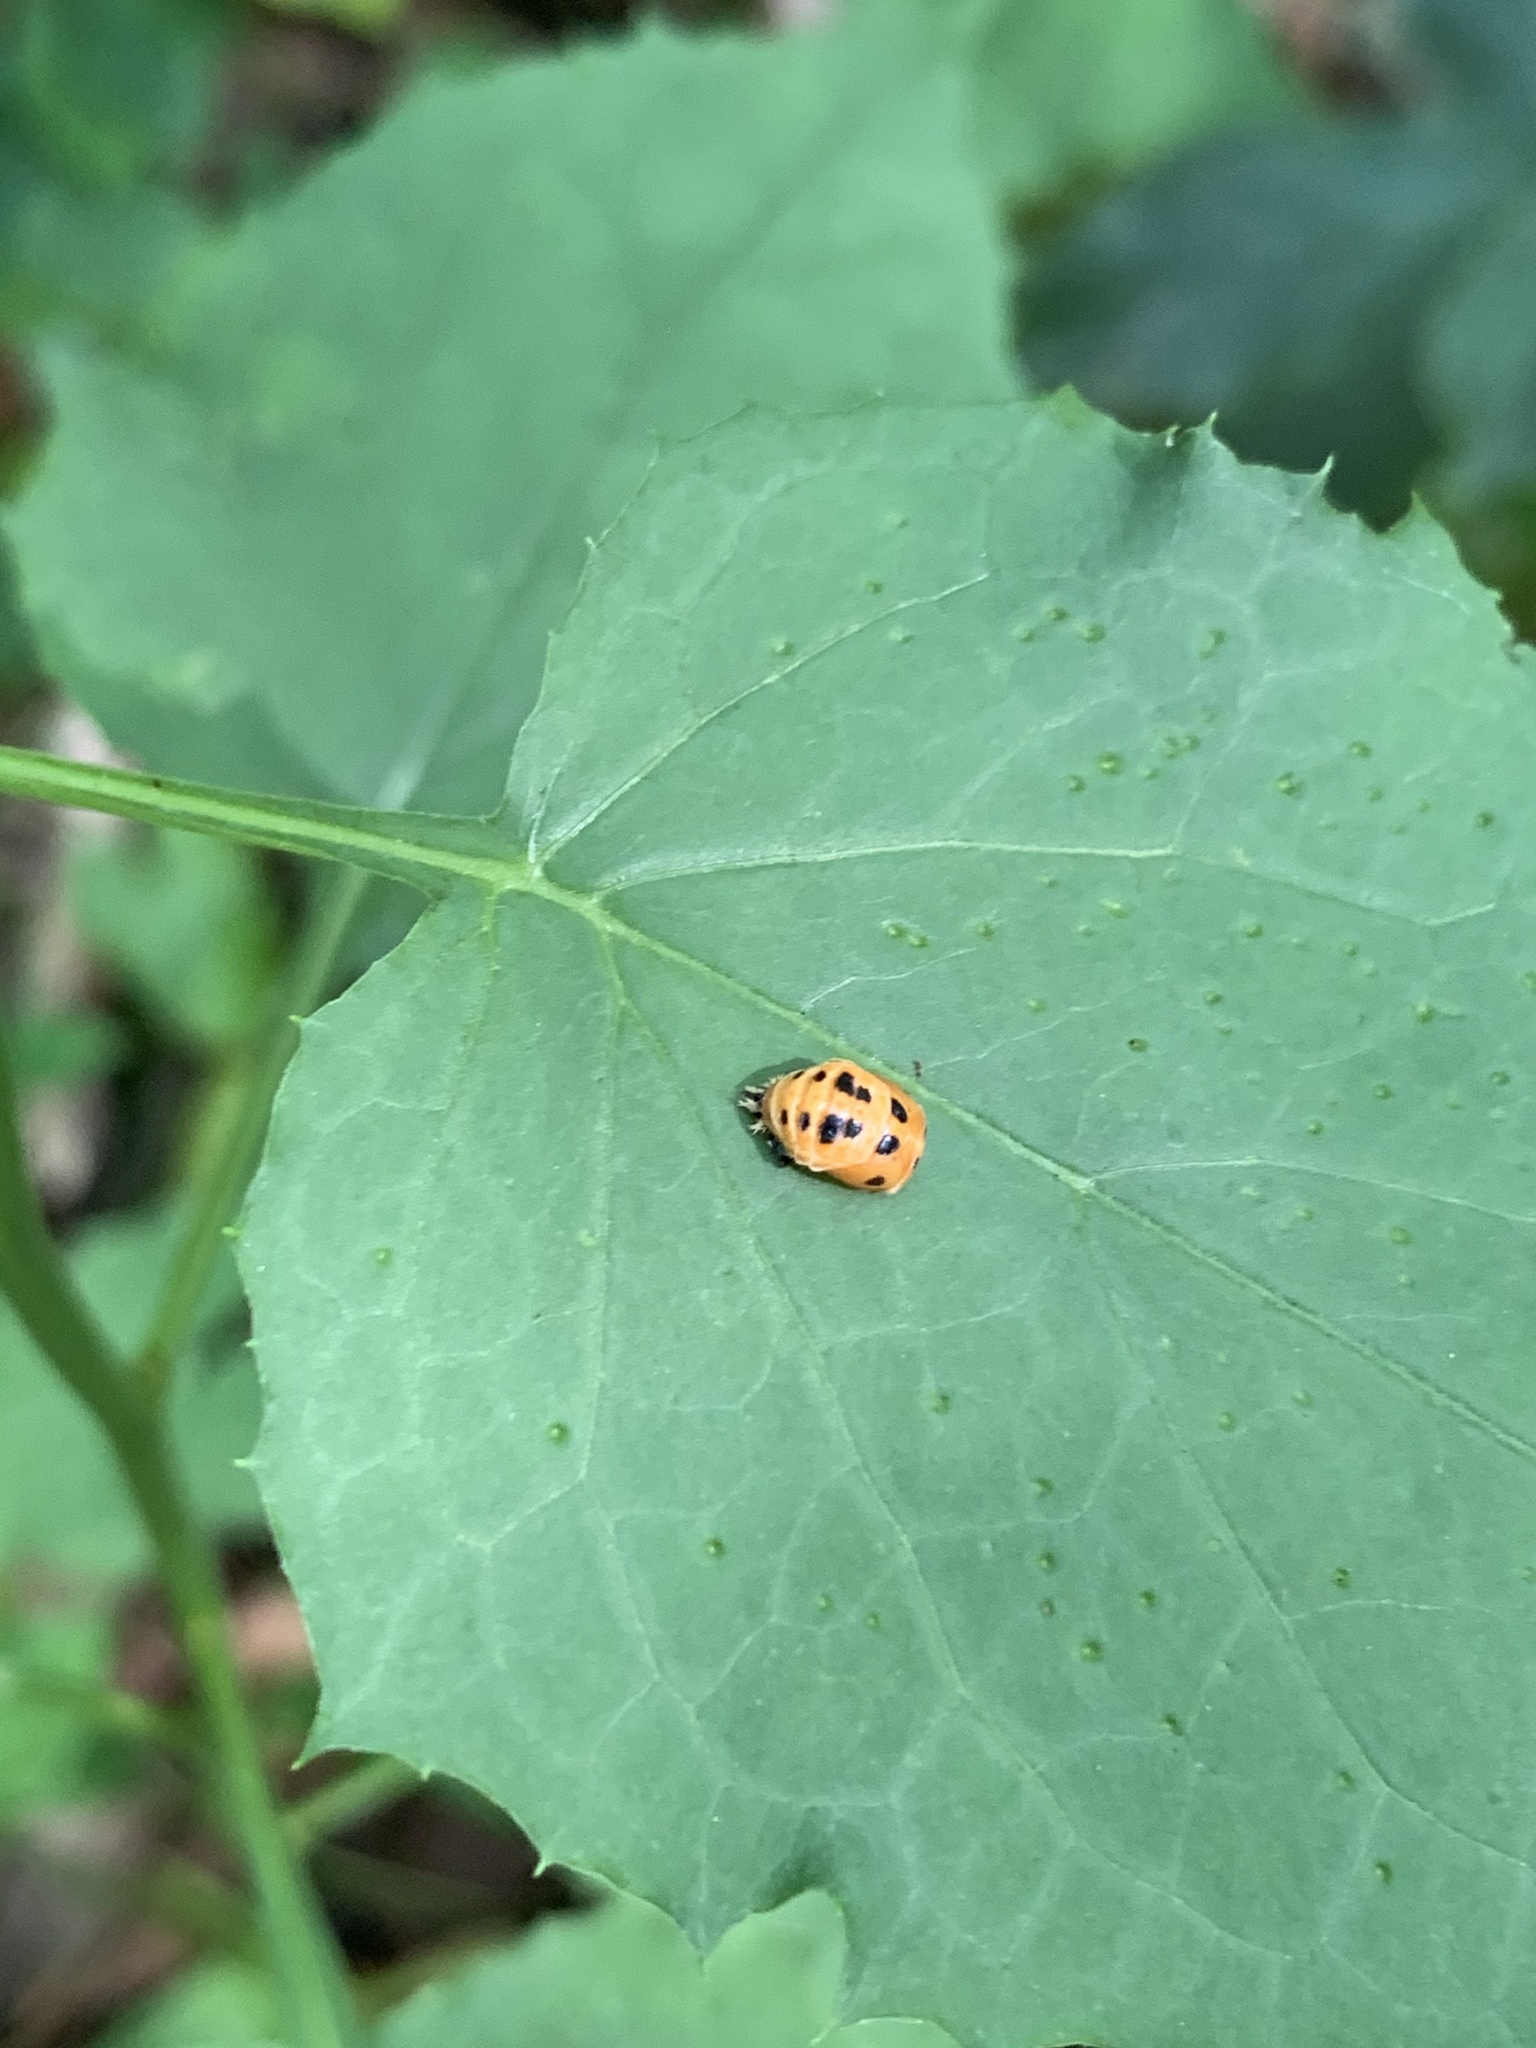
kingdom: Animalia
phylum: Arthropoda
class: Insecta
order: Coleoptera
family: Coccinellidae
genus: Harmonia
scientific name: Harmonia axyridis
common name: Harlequin ladybird
